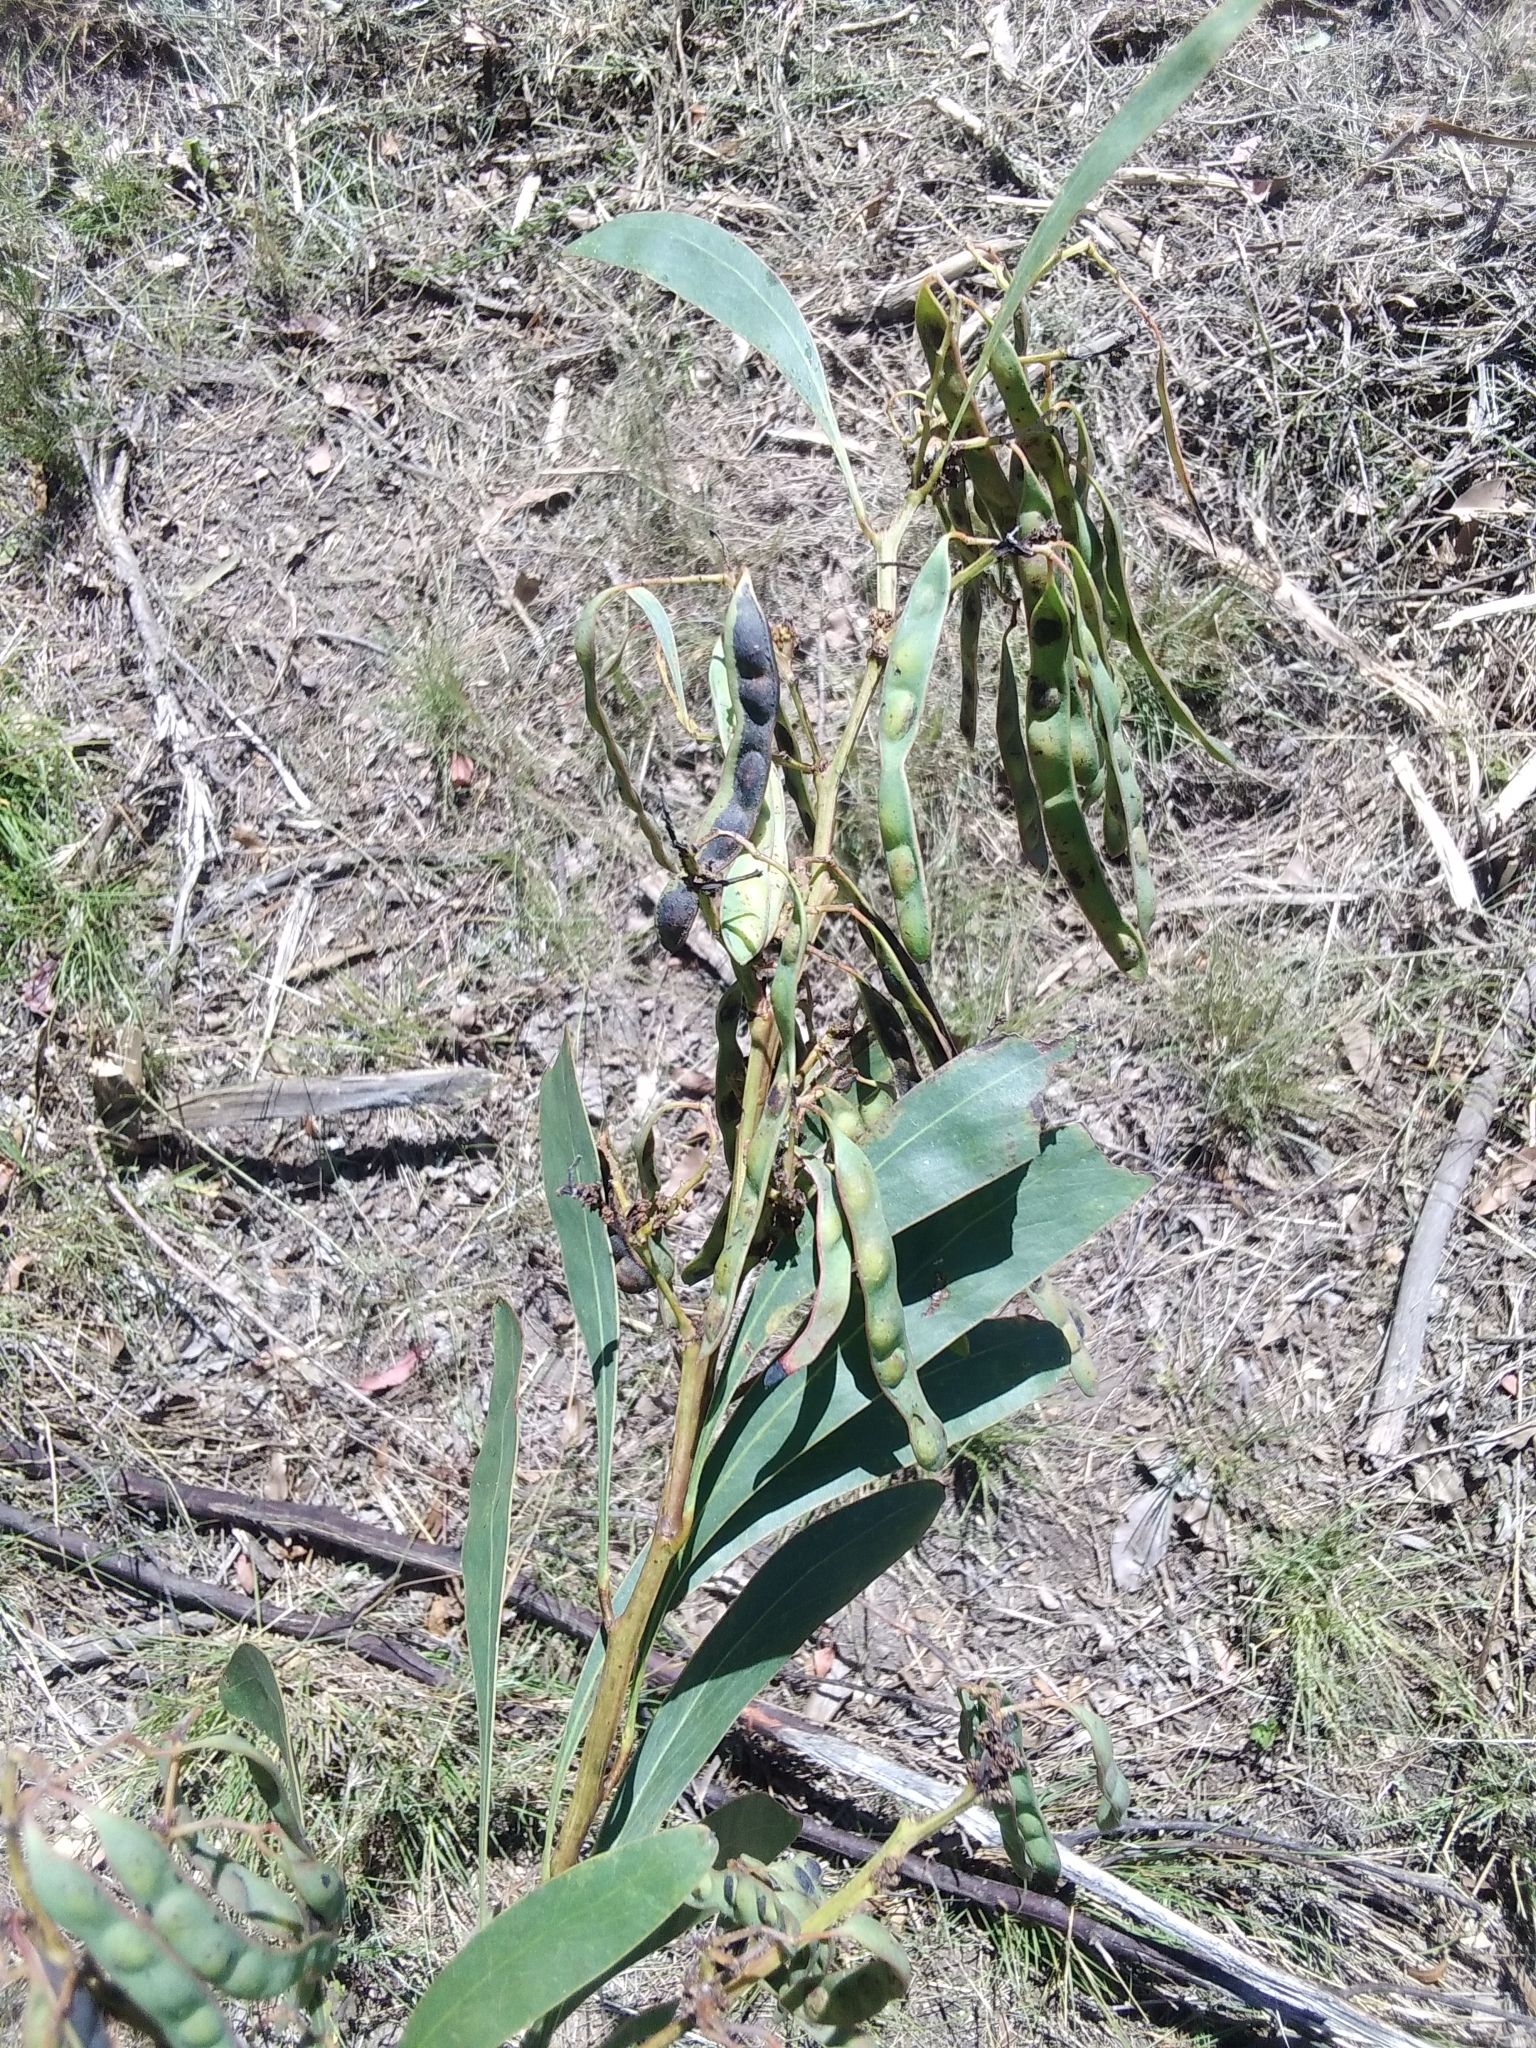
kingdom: Plantae
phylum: Tracheophyta
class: Magnoliopsida
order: Fabales
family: Fabaceae
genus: Acacia
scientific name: Acacia falcata
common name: Burra acacia
